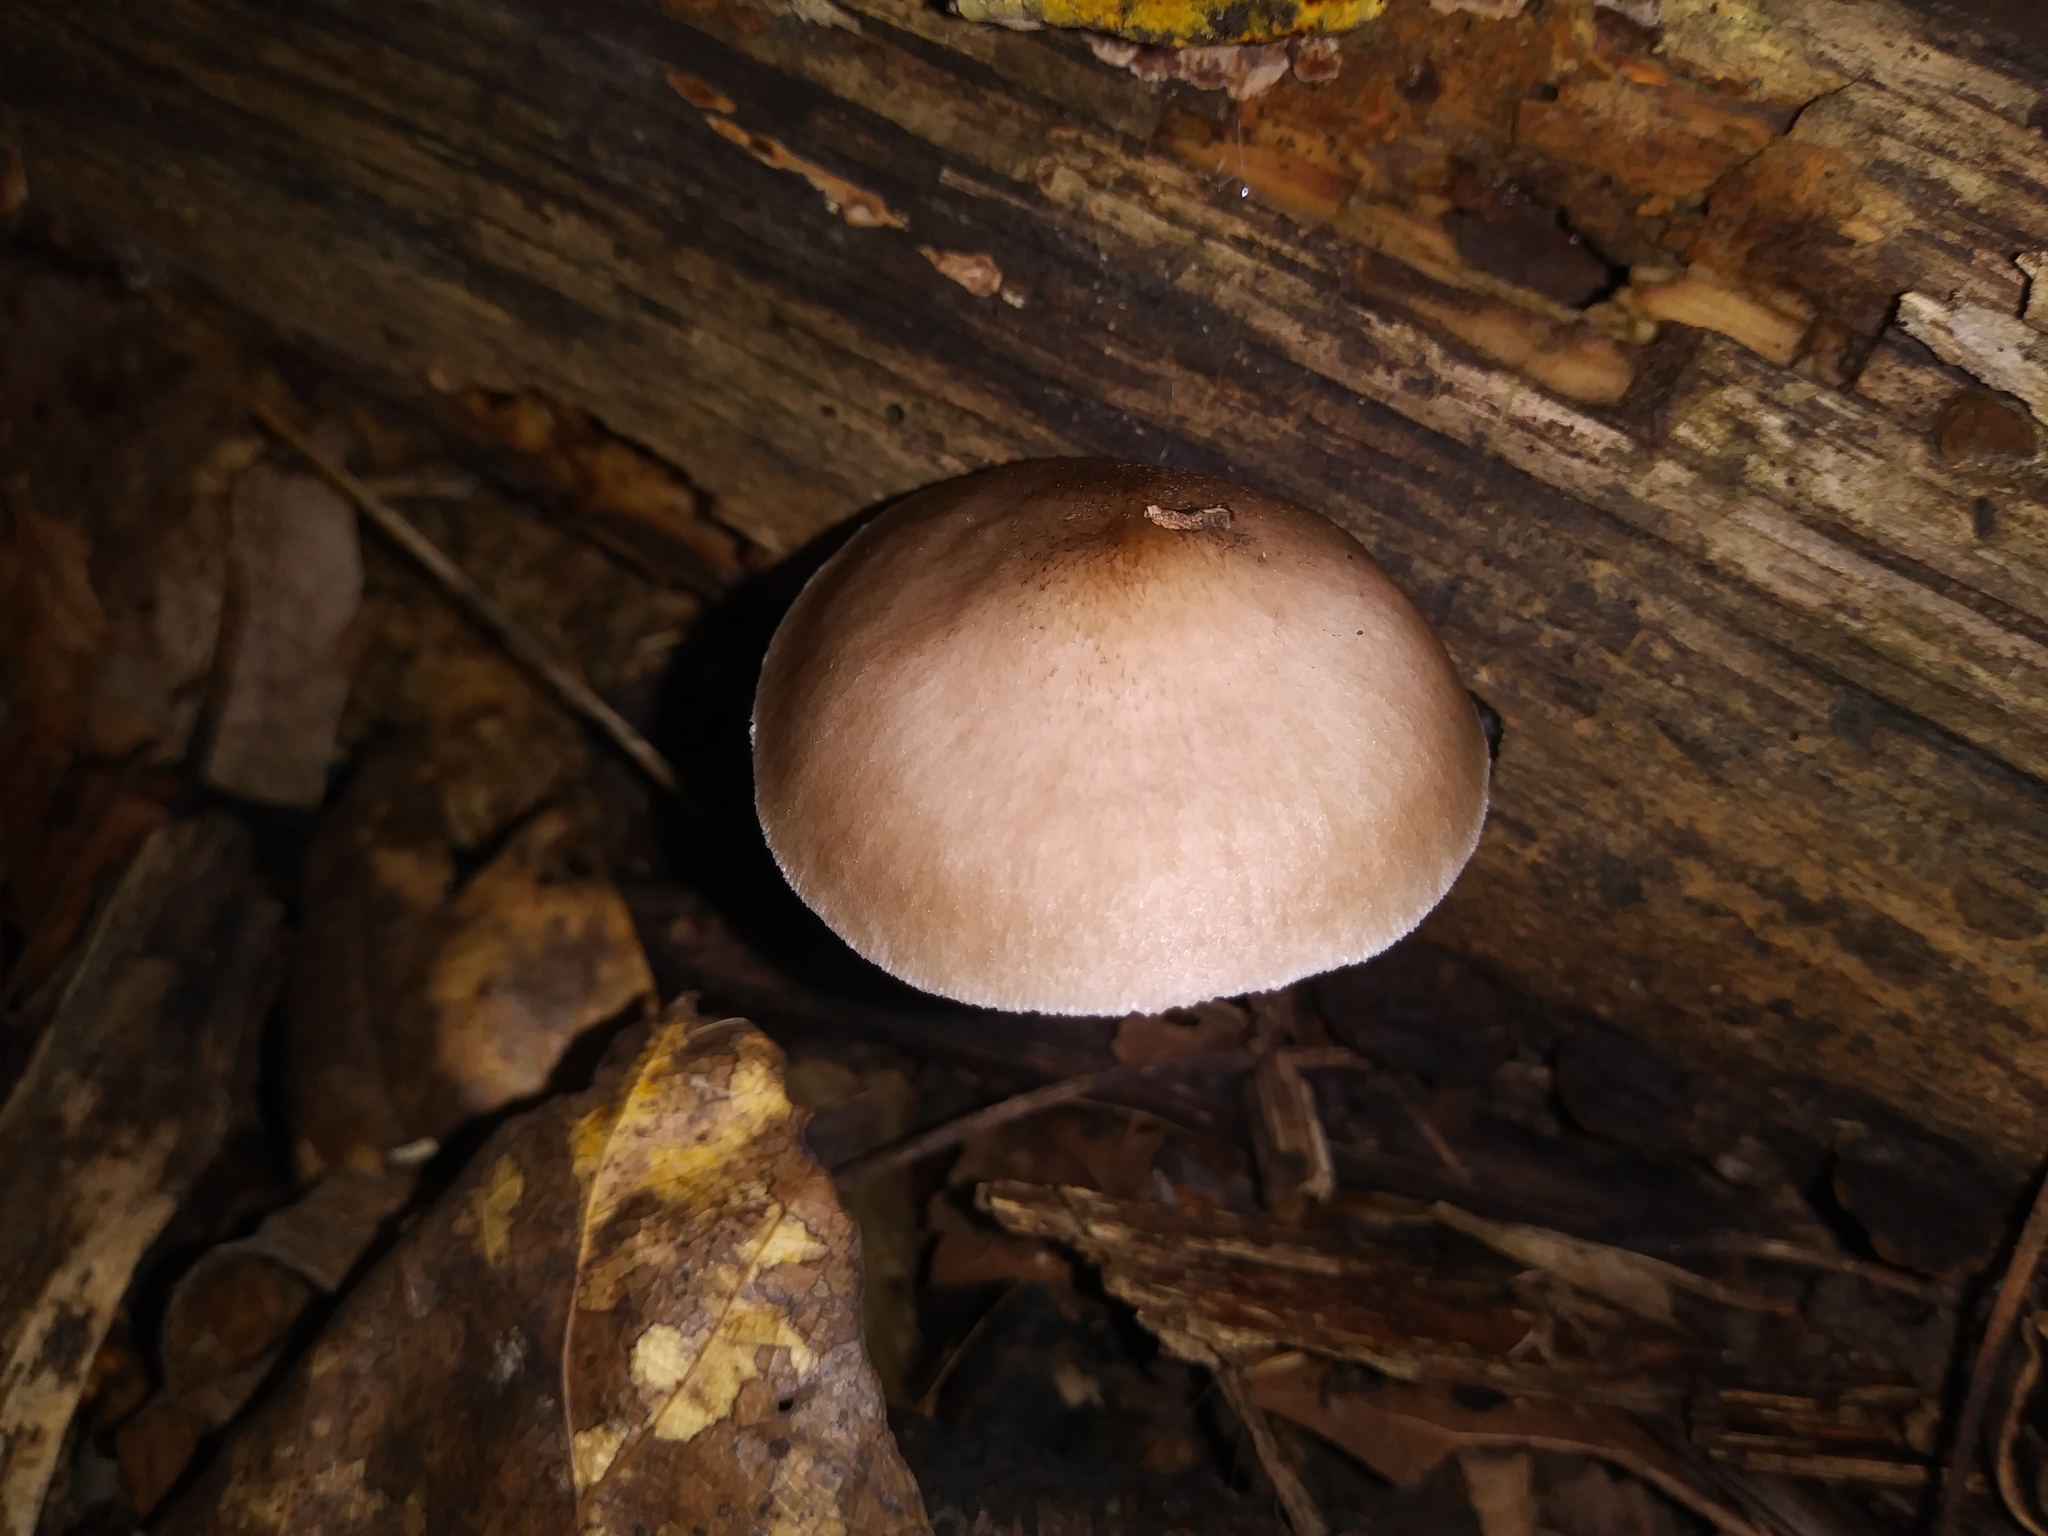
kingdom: Fungi
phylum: Basidiomycota
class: Agaricomycetes
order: Agaricales
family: Pluteaceae
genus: Pluteus
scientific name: Pluteus cervinus
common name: Deer shield
